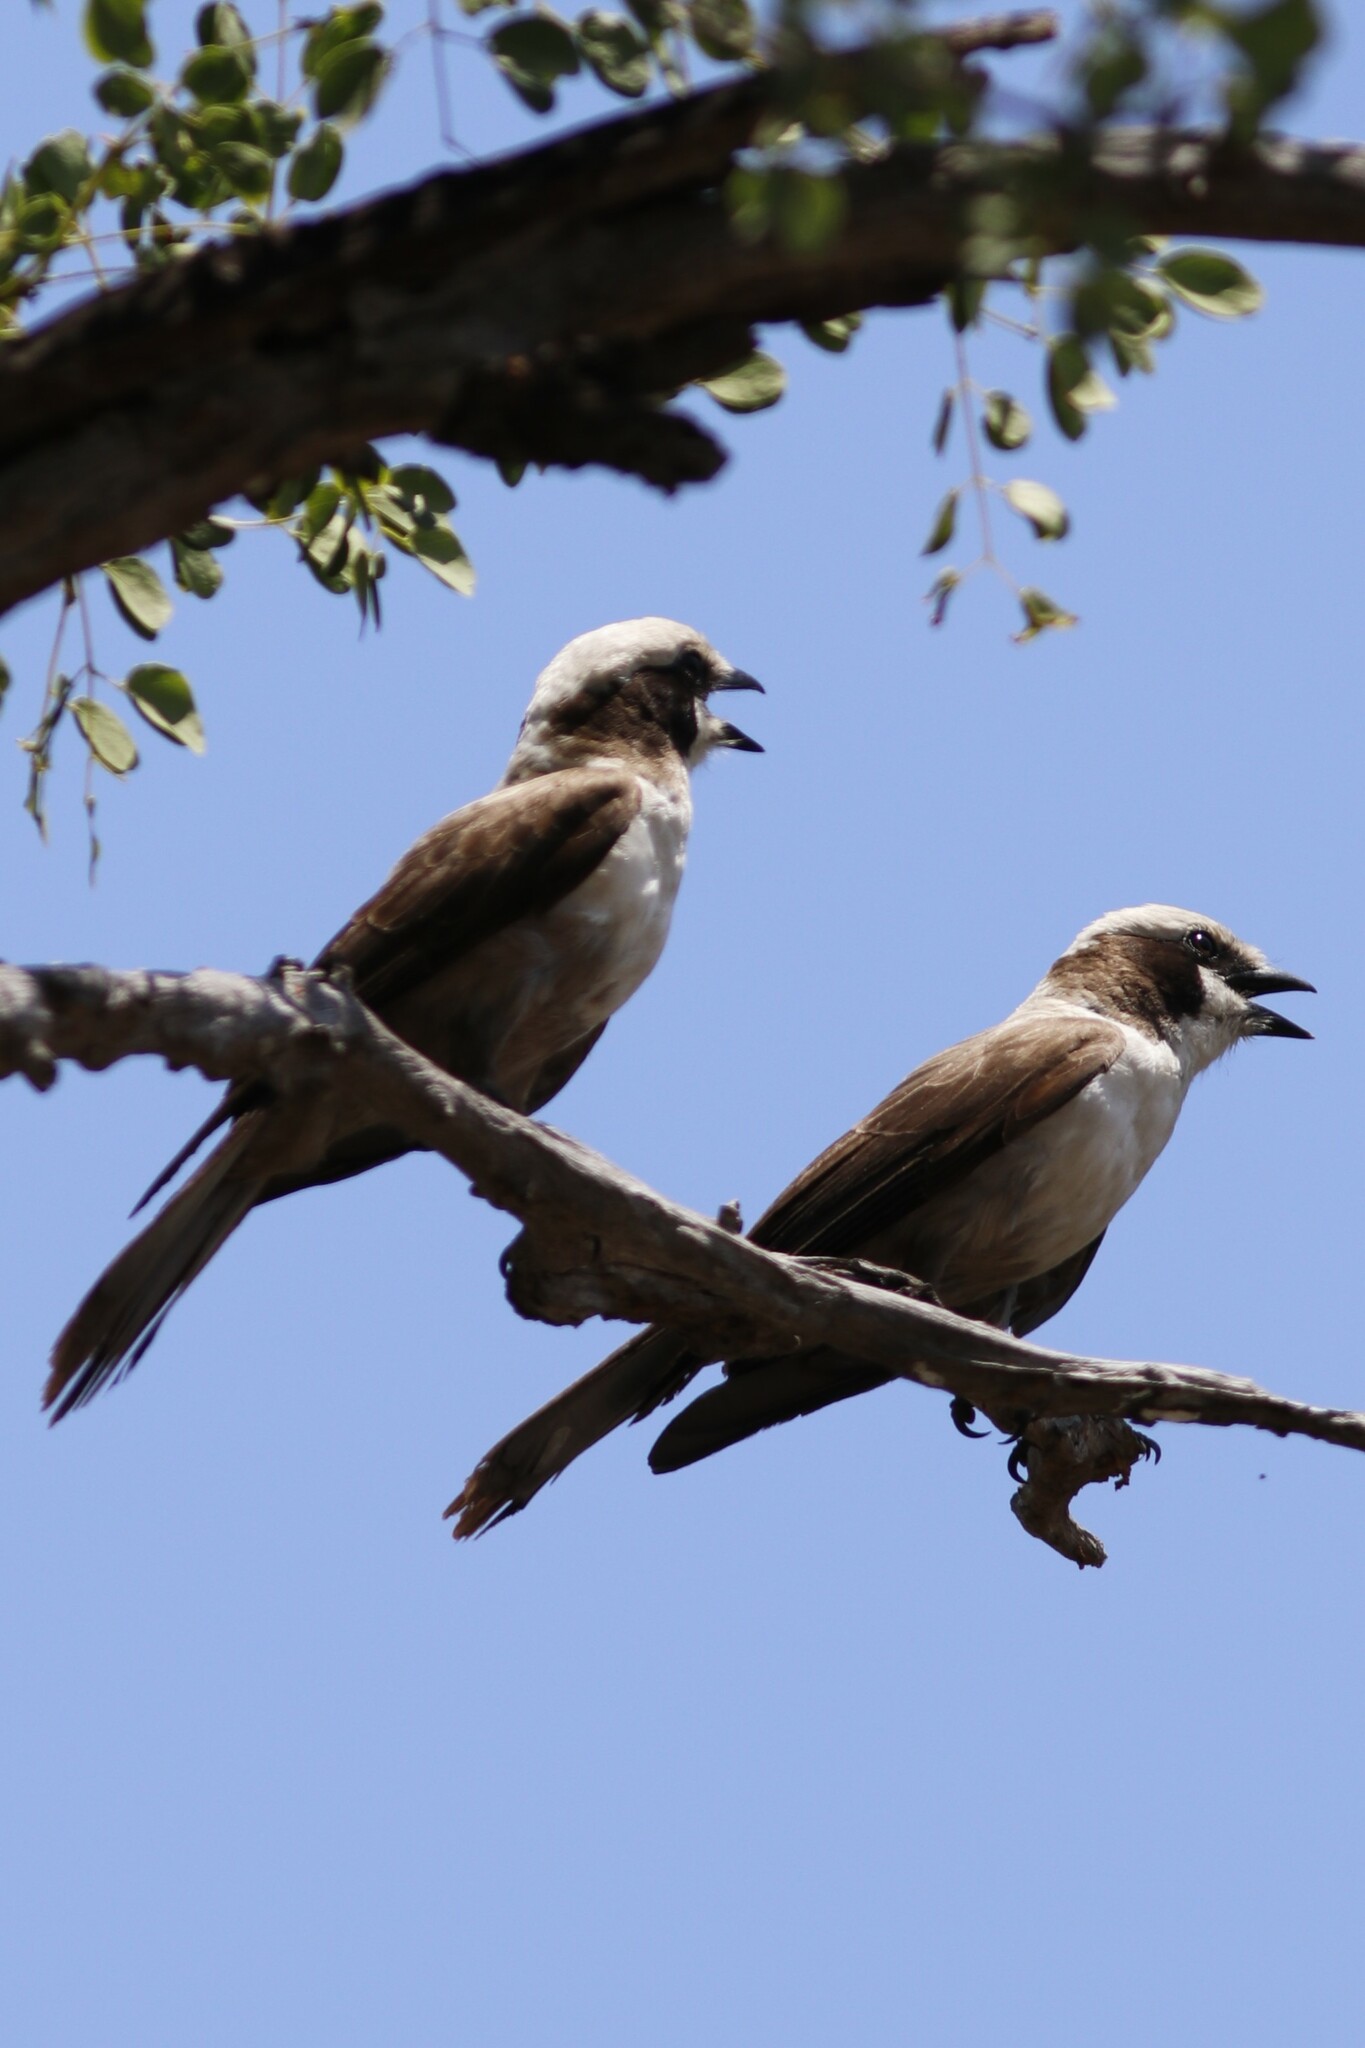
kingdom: Animalia
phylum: Chordata
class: Aves
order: Passeriformes
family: Laniidae
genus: Eurocephalus
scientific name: Eurocephalus anguitimens
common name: Southern white-crowned shrike
